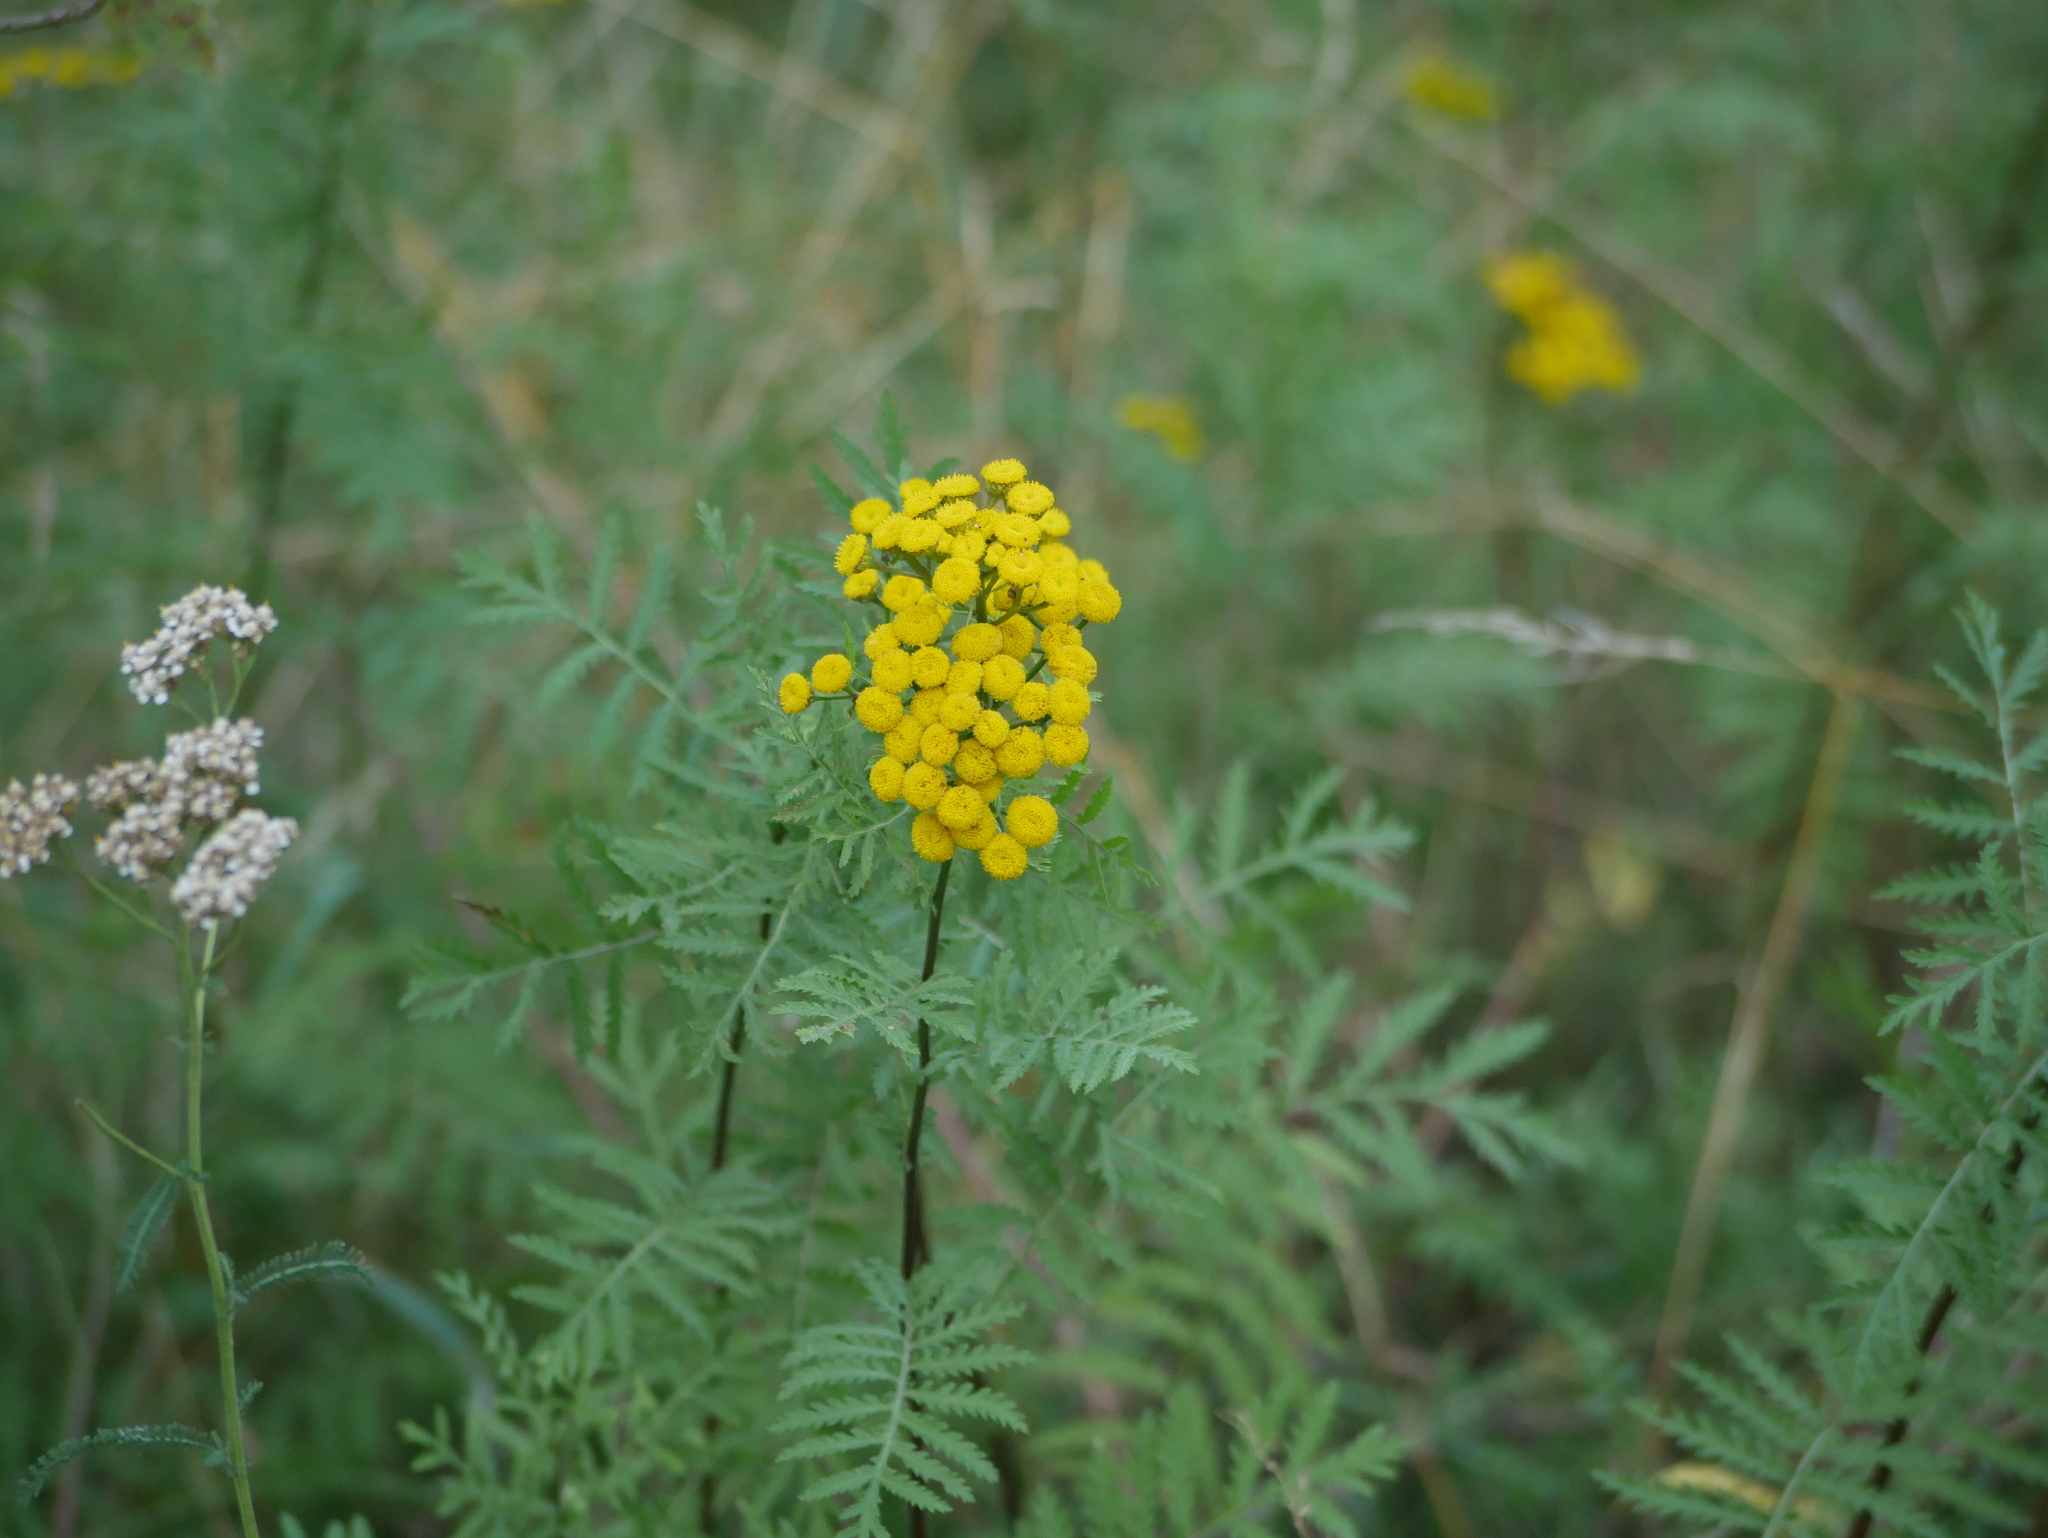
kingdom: Plantae
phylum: Tracheophyta
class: Magnoliopsida
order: Asterales
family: Asteraceae
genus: Tanacetum
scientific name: Tanacetum vulgare
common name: Common tansy
